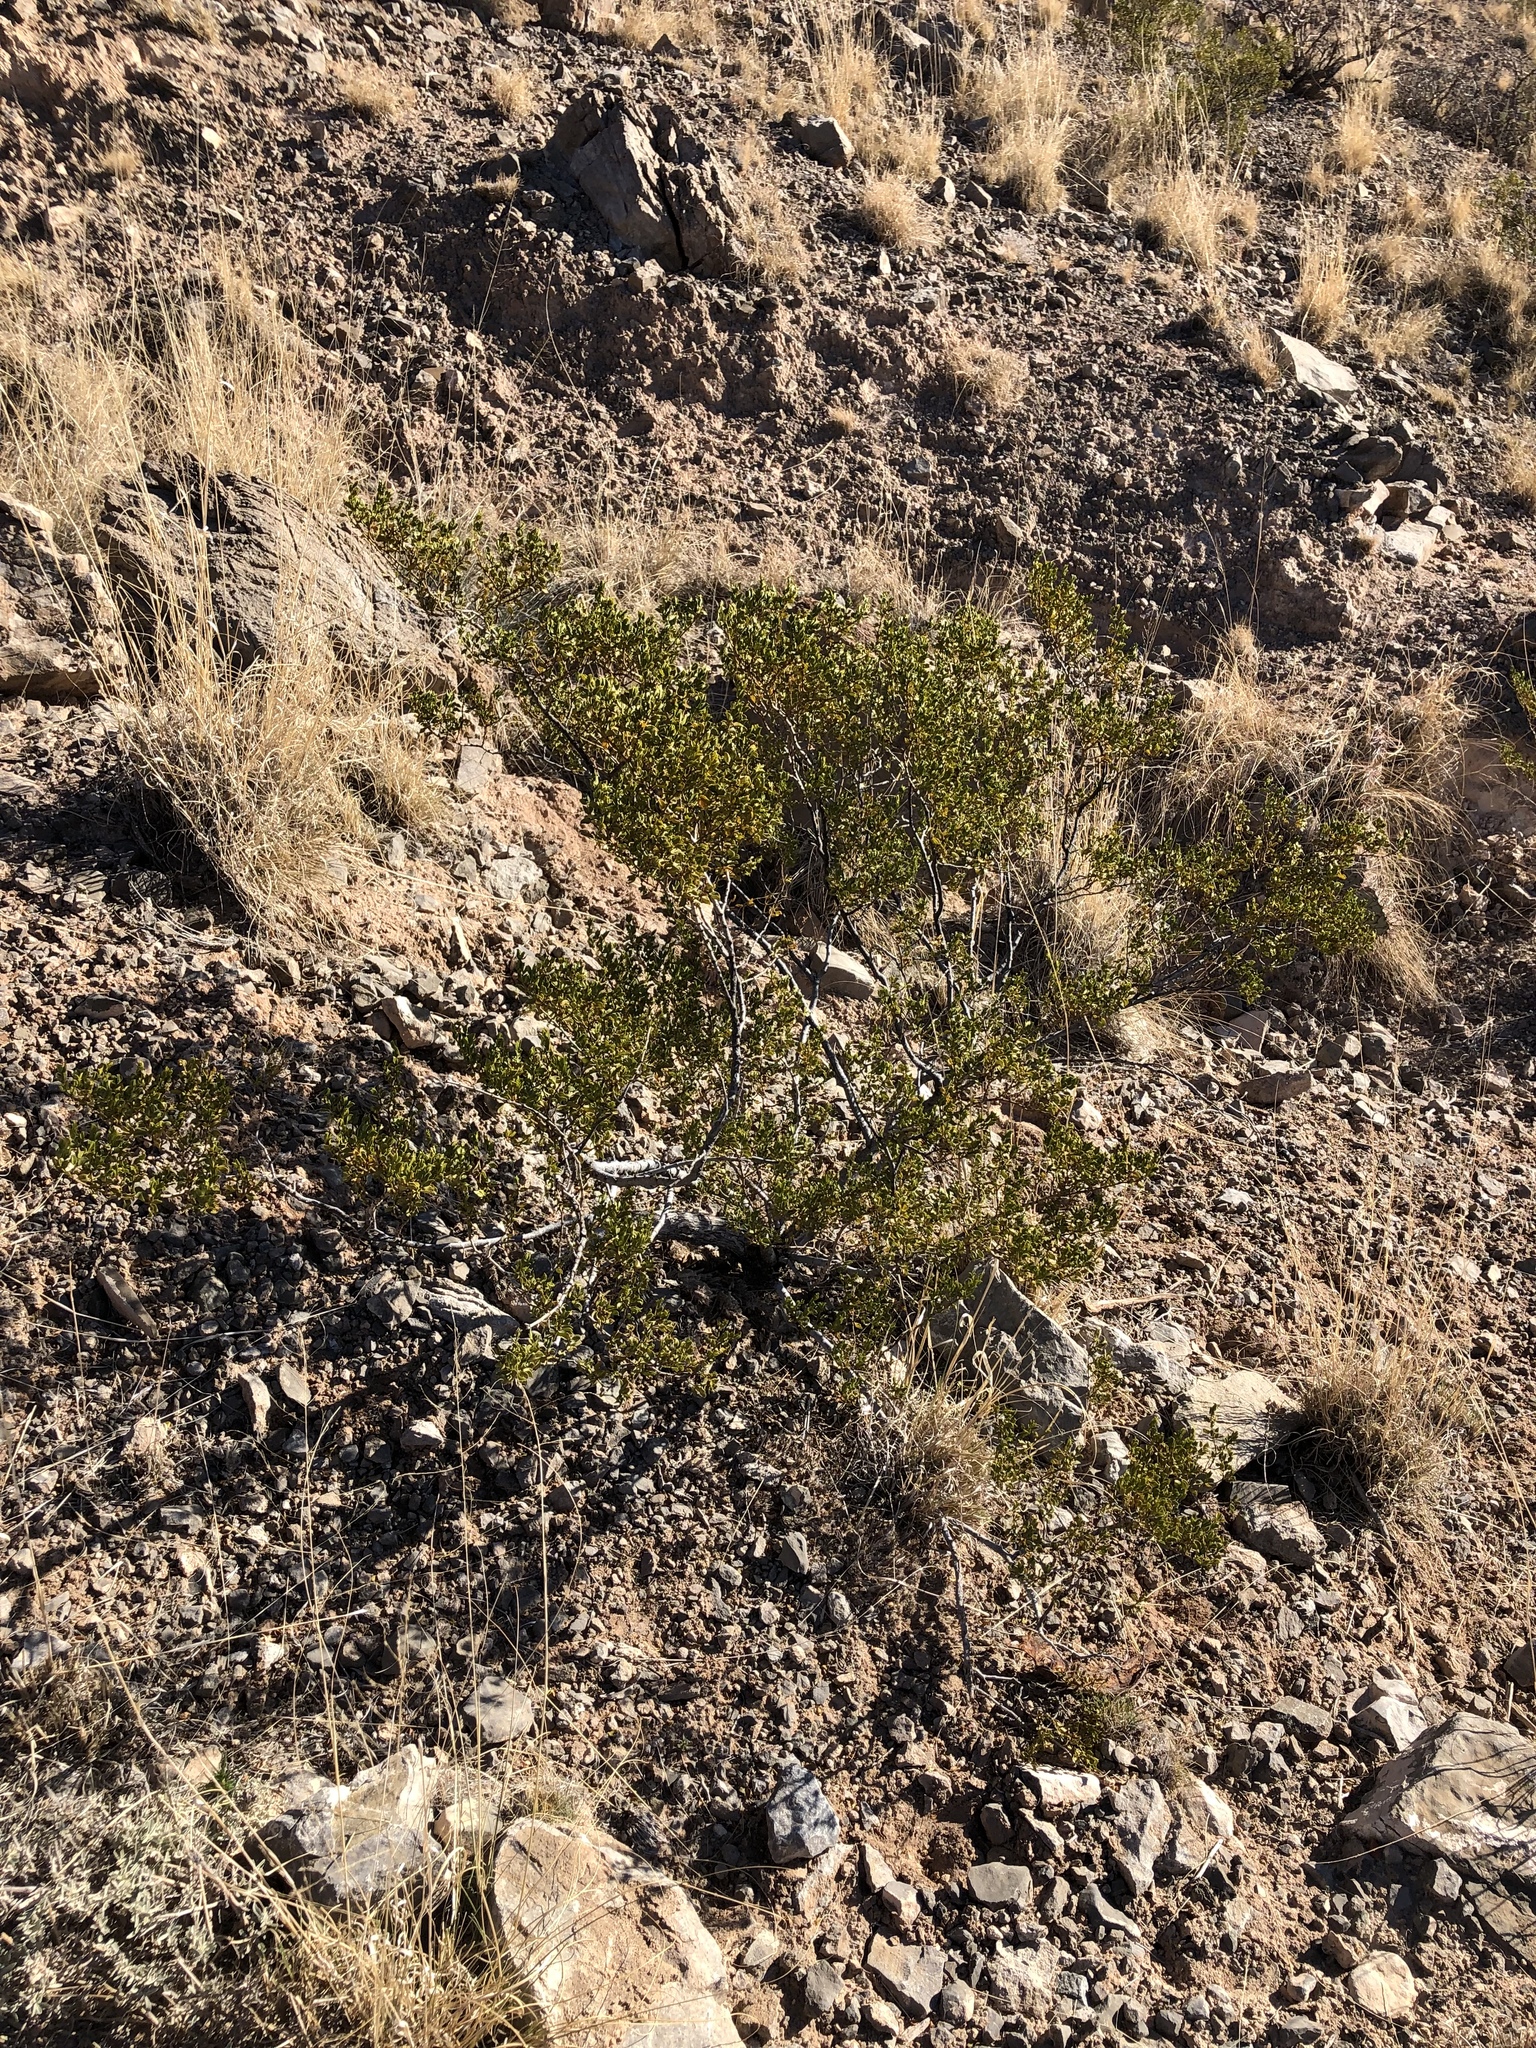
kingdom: Plantae
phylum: Tracheophyta
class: Magnoliopsida
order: Zygophyllales
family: Zygophyllaceae
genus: Larrea
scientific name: Larrea tridentata
